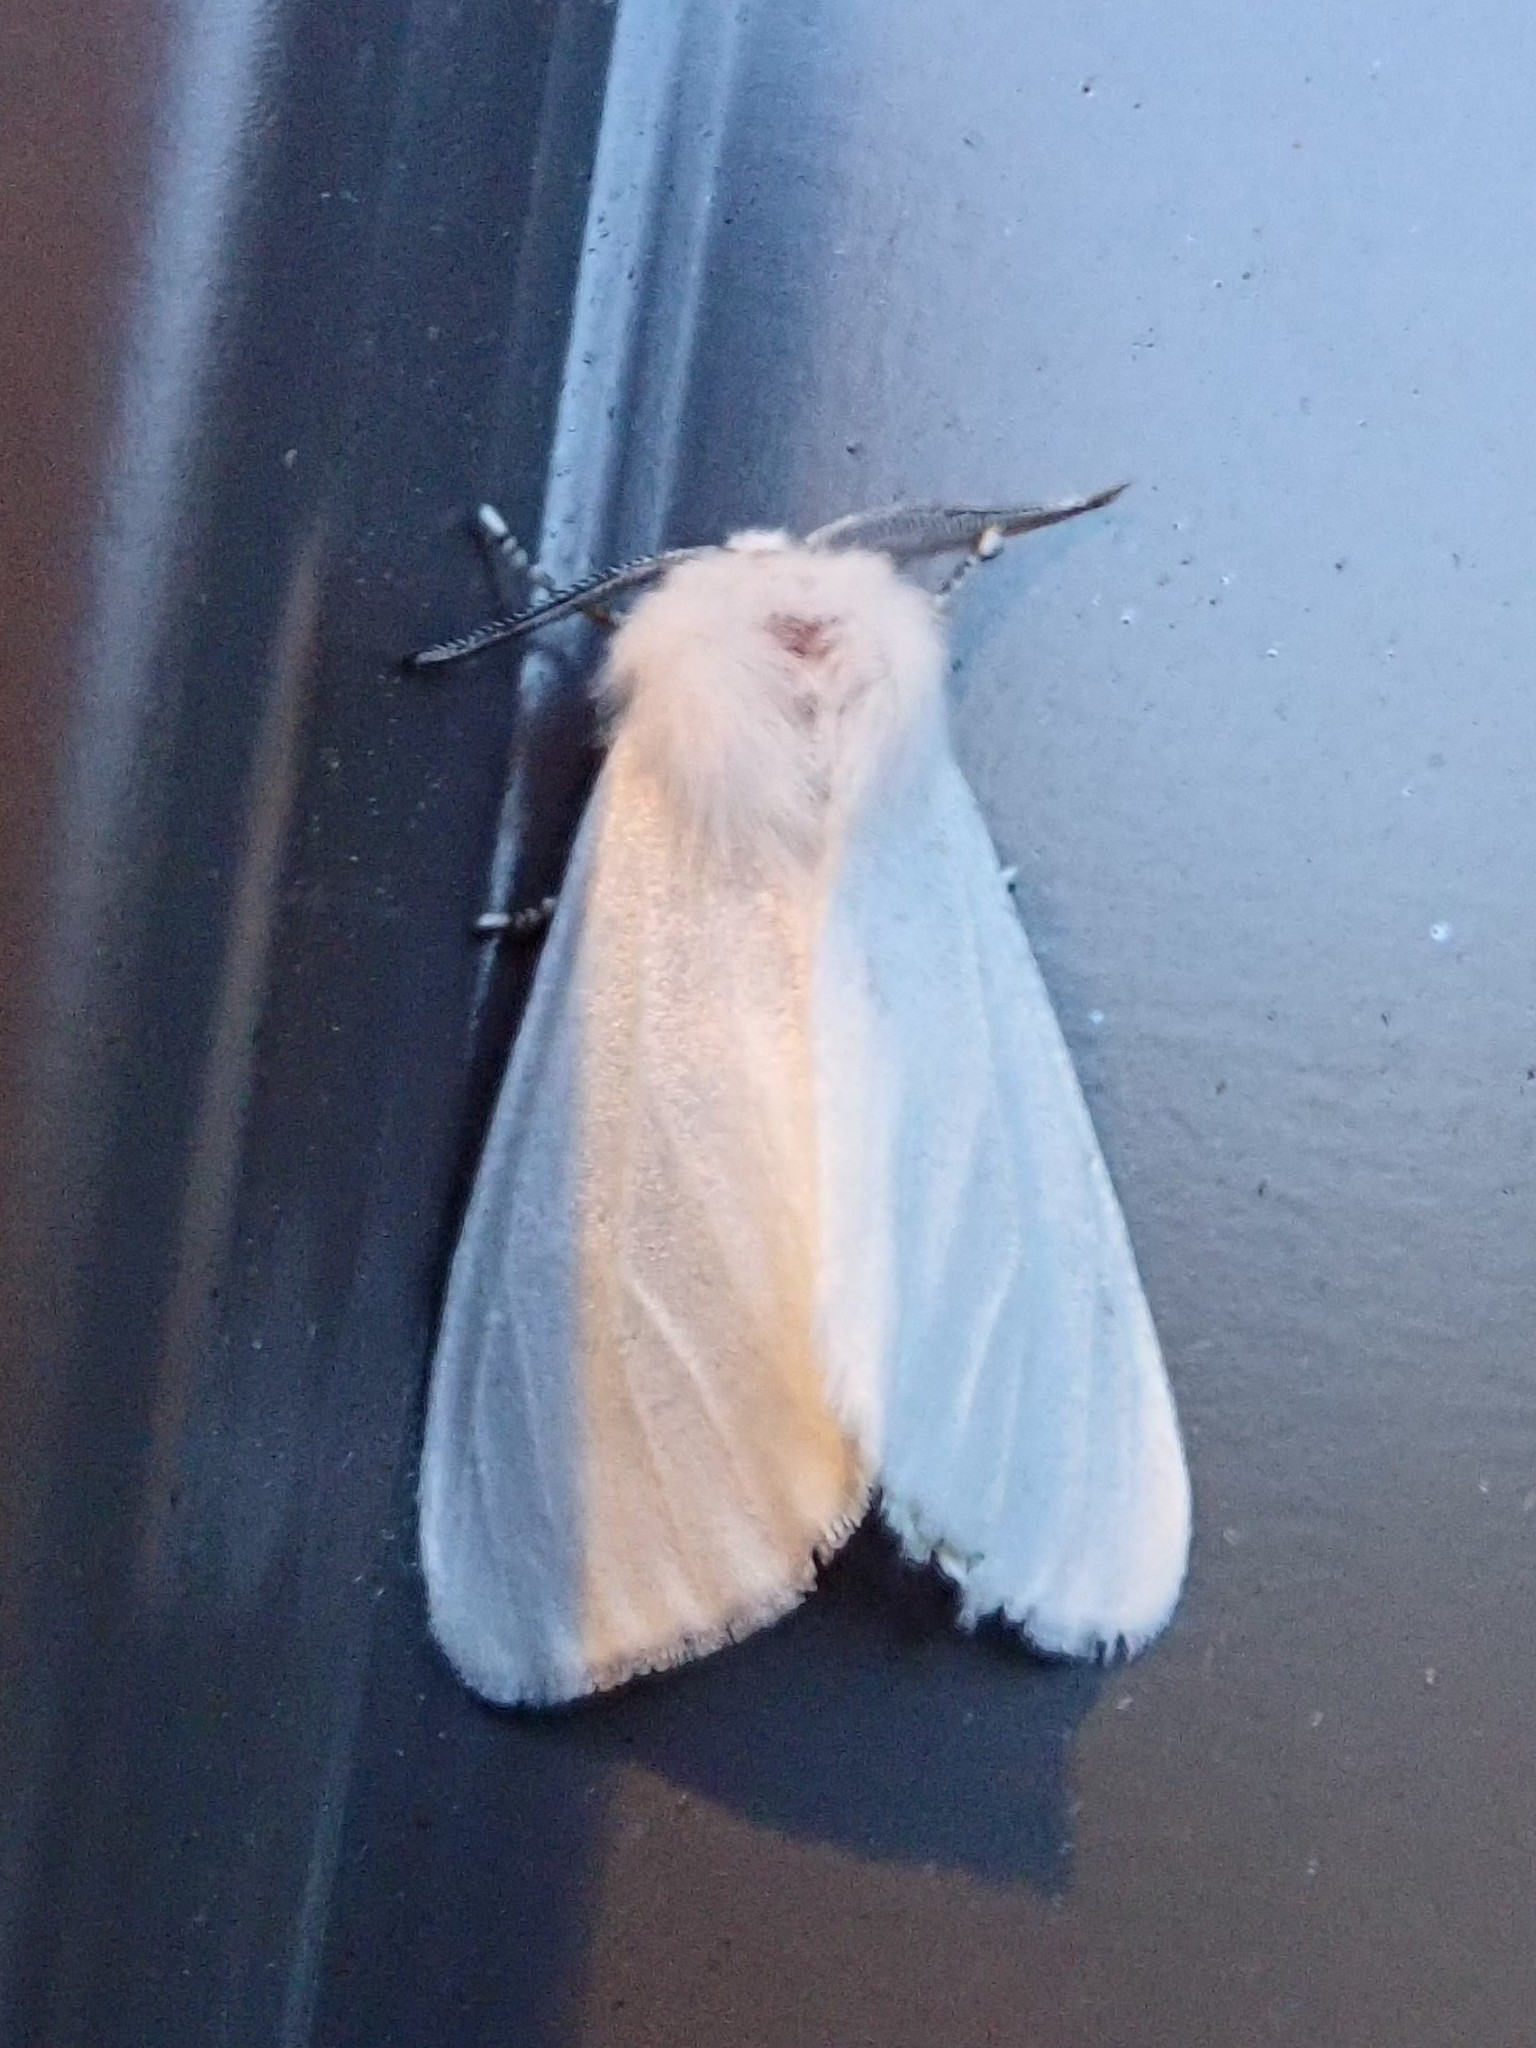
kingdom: Animalia
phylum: Arthropoda
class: Insecta
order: Lepidoptera
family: Erebidae
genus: Hyphantria
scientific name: Hyphantria cunea
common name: American white moth
